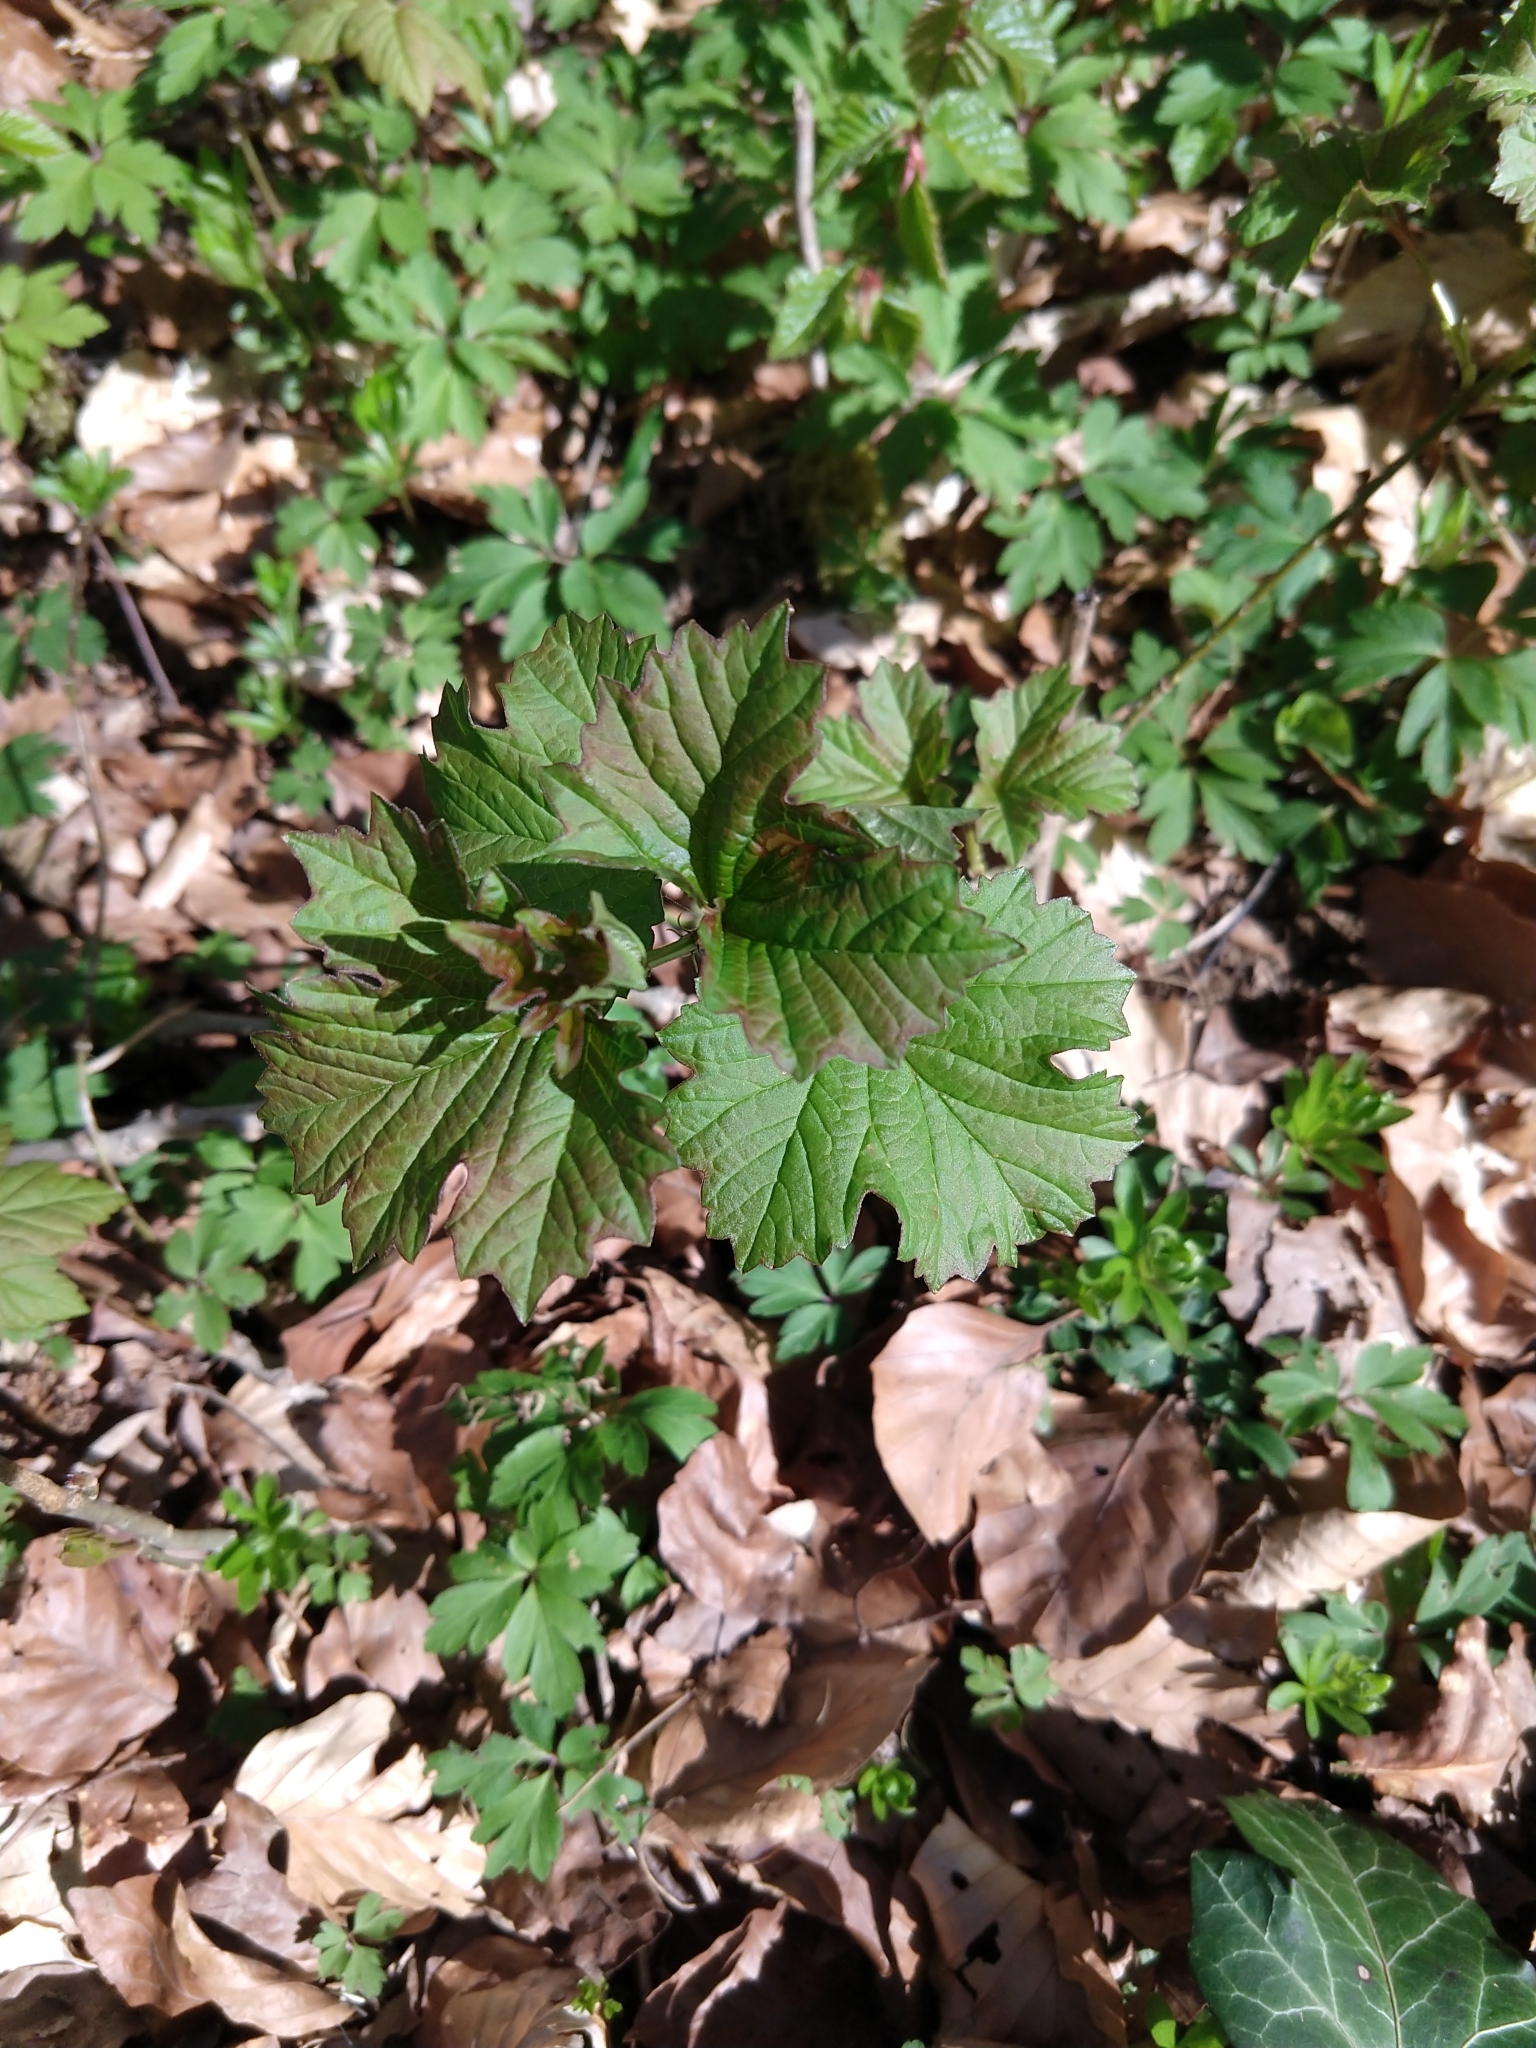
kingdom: Plantae
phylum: Tracheophyta
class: Magnoliopsida
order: Dipsacales
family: Viburnaceae
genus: Viburnum
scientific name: Viburnum opulus
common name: Guelder-rose
